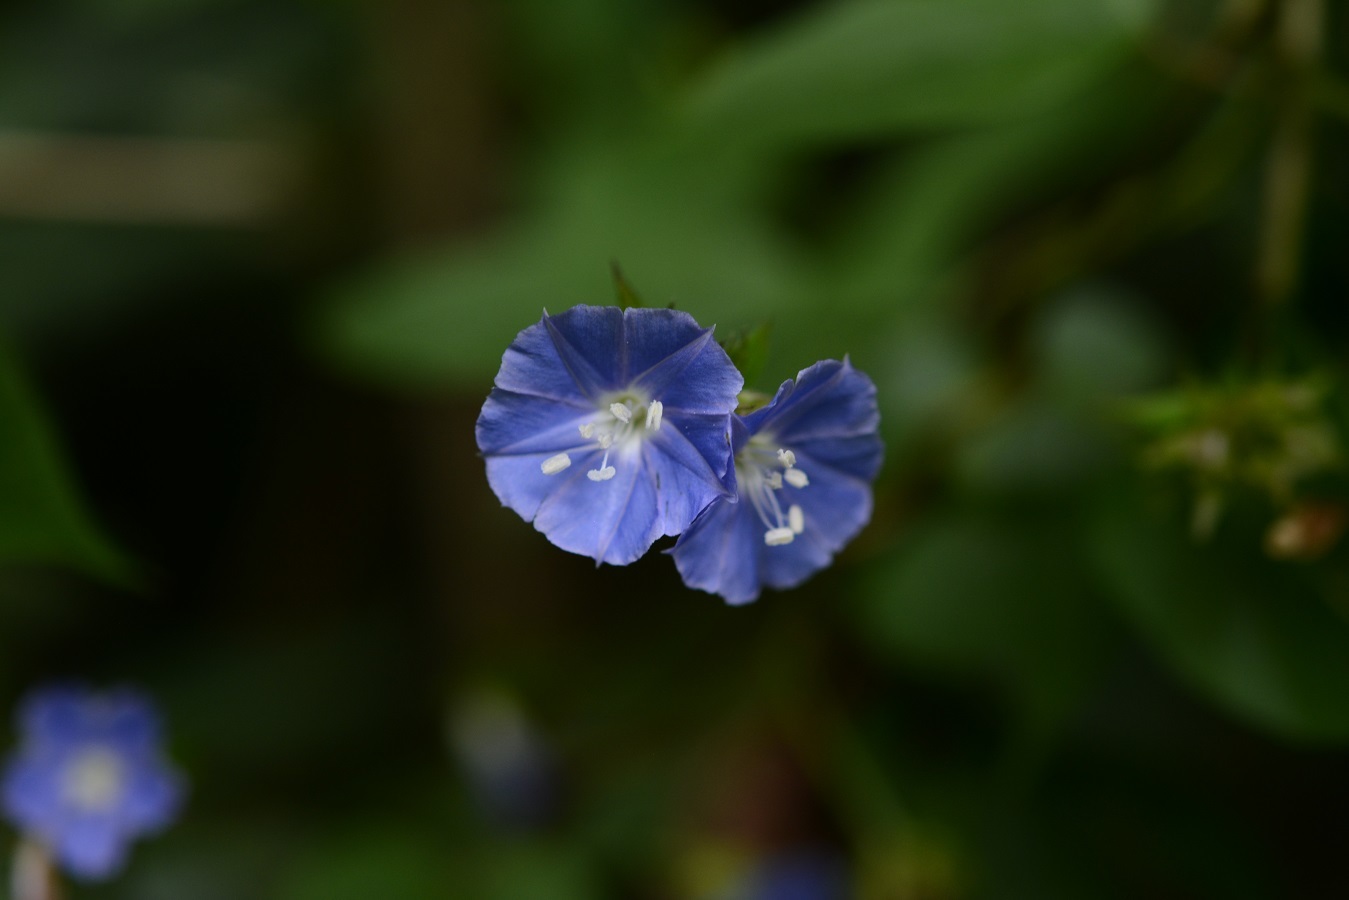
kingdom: Plantae
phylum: Tracheophyta
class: Magnoliopsida
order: Solanales
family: Convolvulaceae
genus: Jacquemontia
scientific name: Jacquemontia pentanthos
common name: Skyblue clustervine
